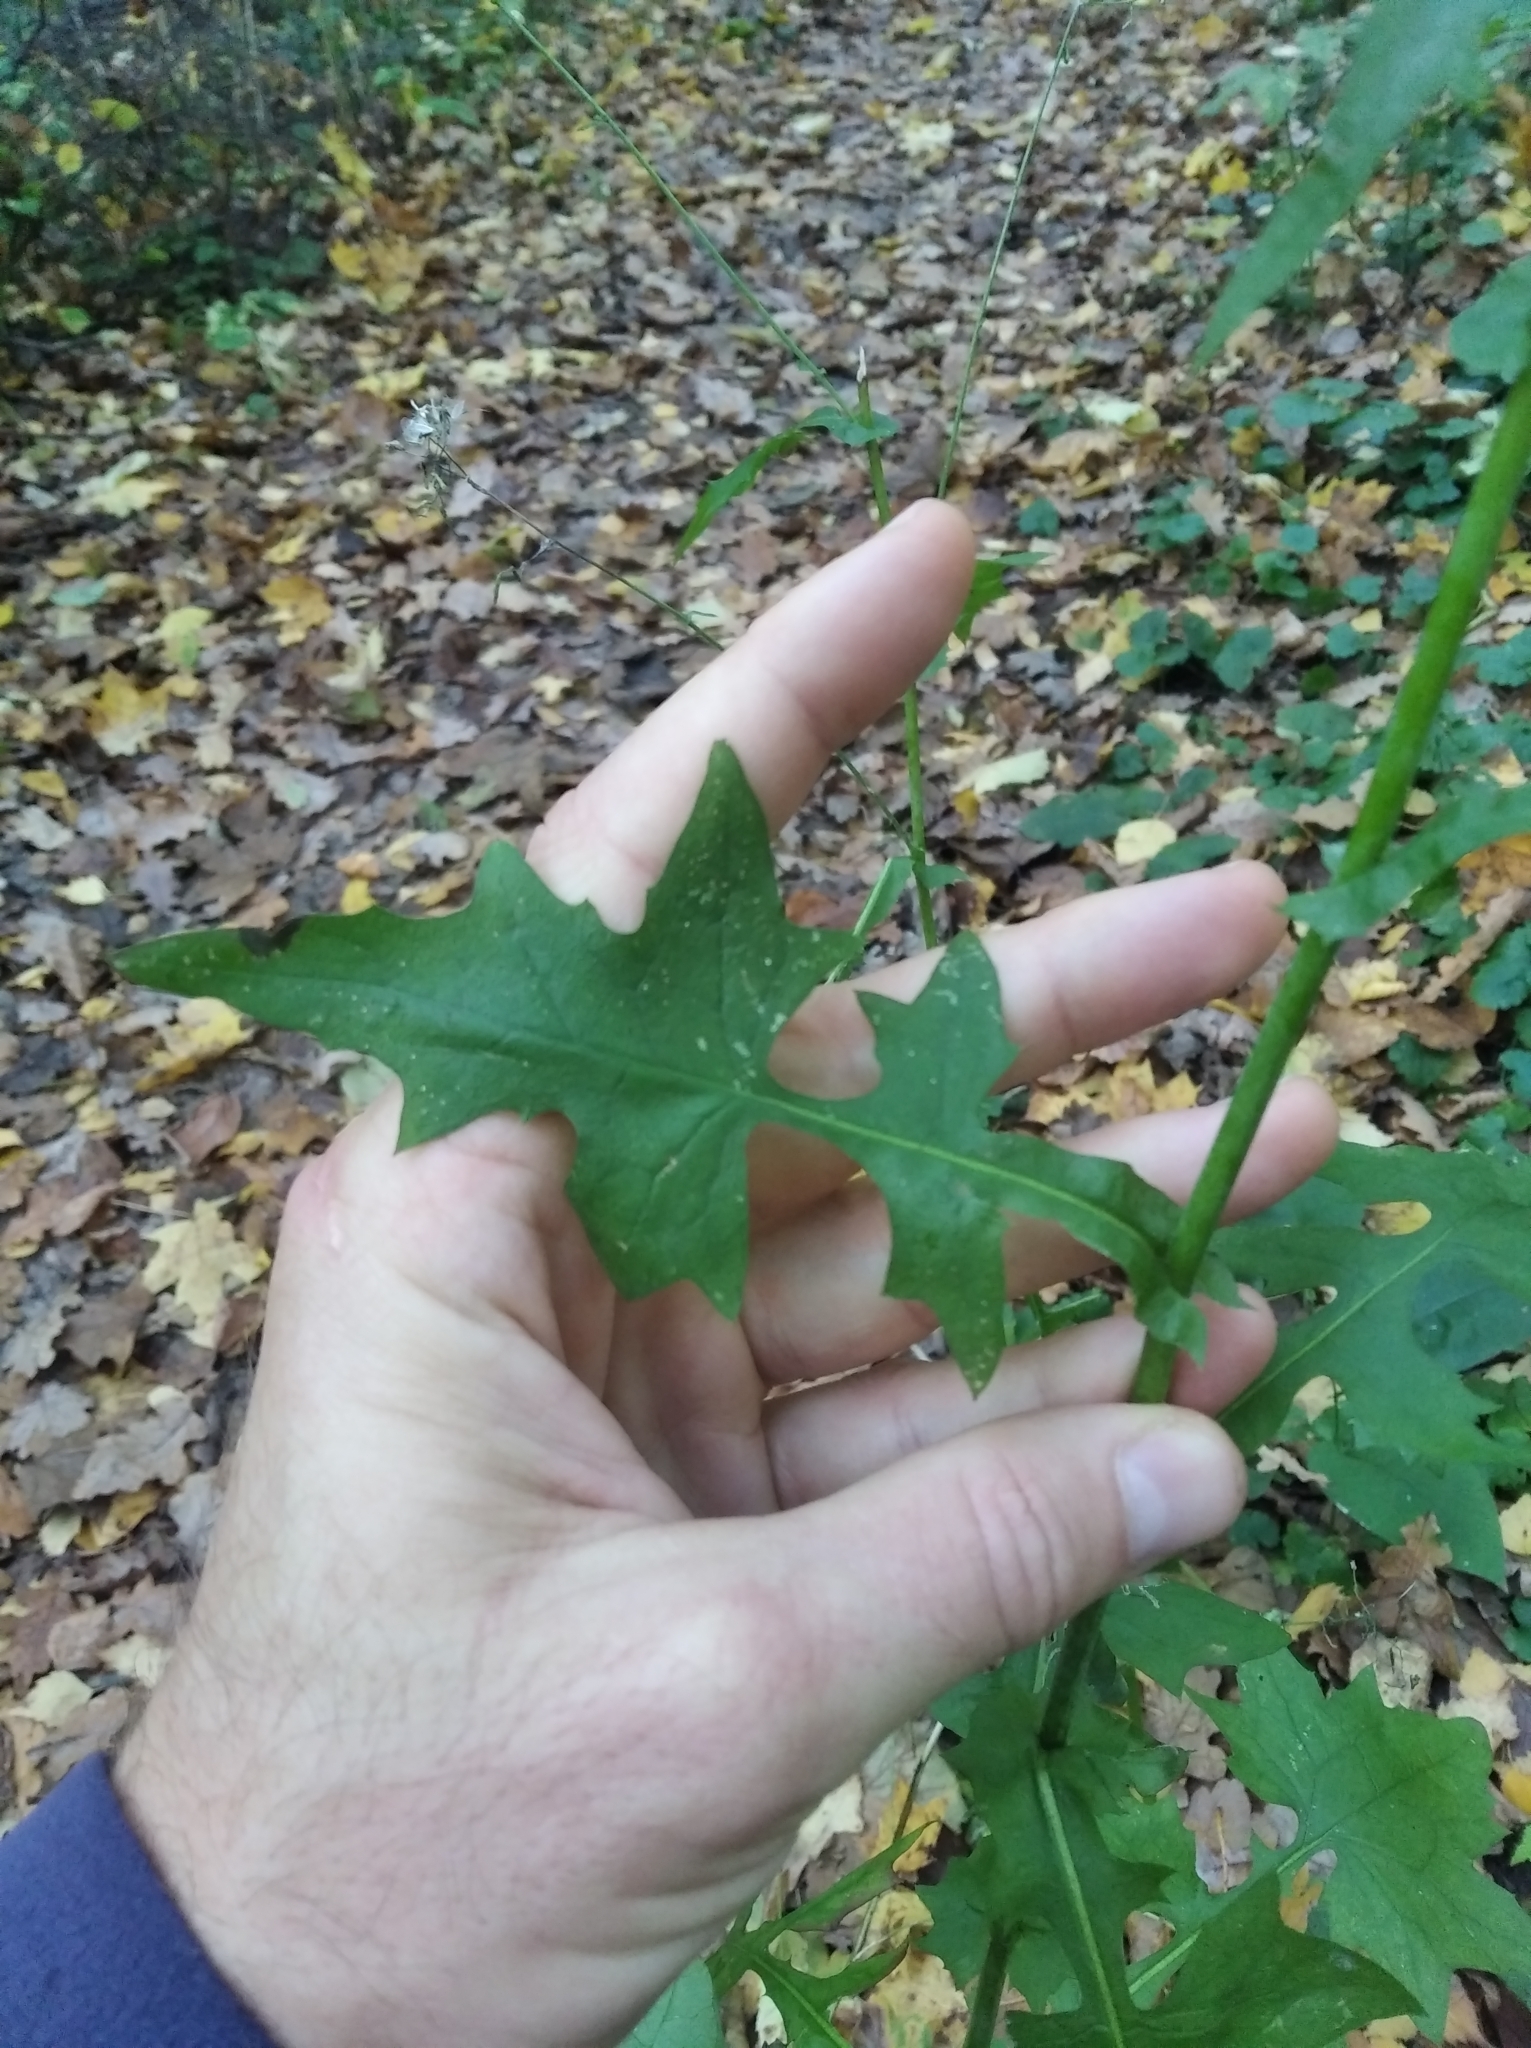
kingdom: Plantae
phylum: Tracheophyta
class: Magnoliopsida
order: Asterales
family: Asteraceae
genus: Mycelis
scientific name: Mycelis muralis
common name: Wall lettuce
